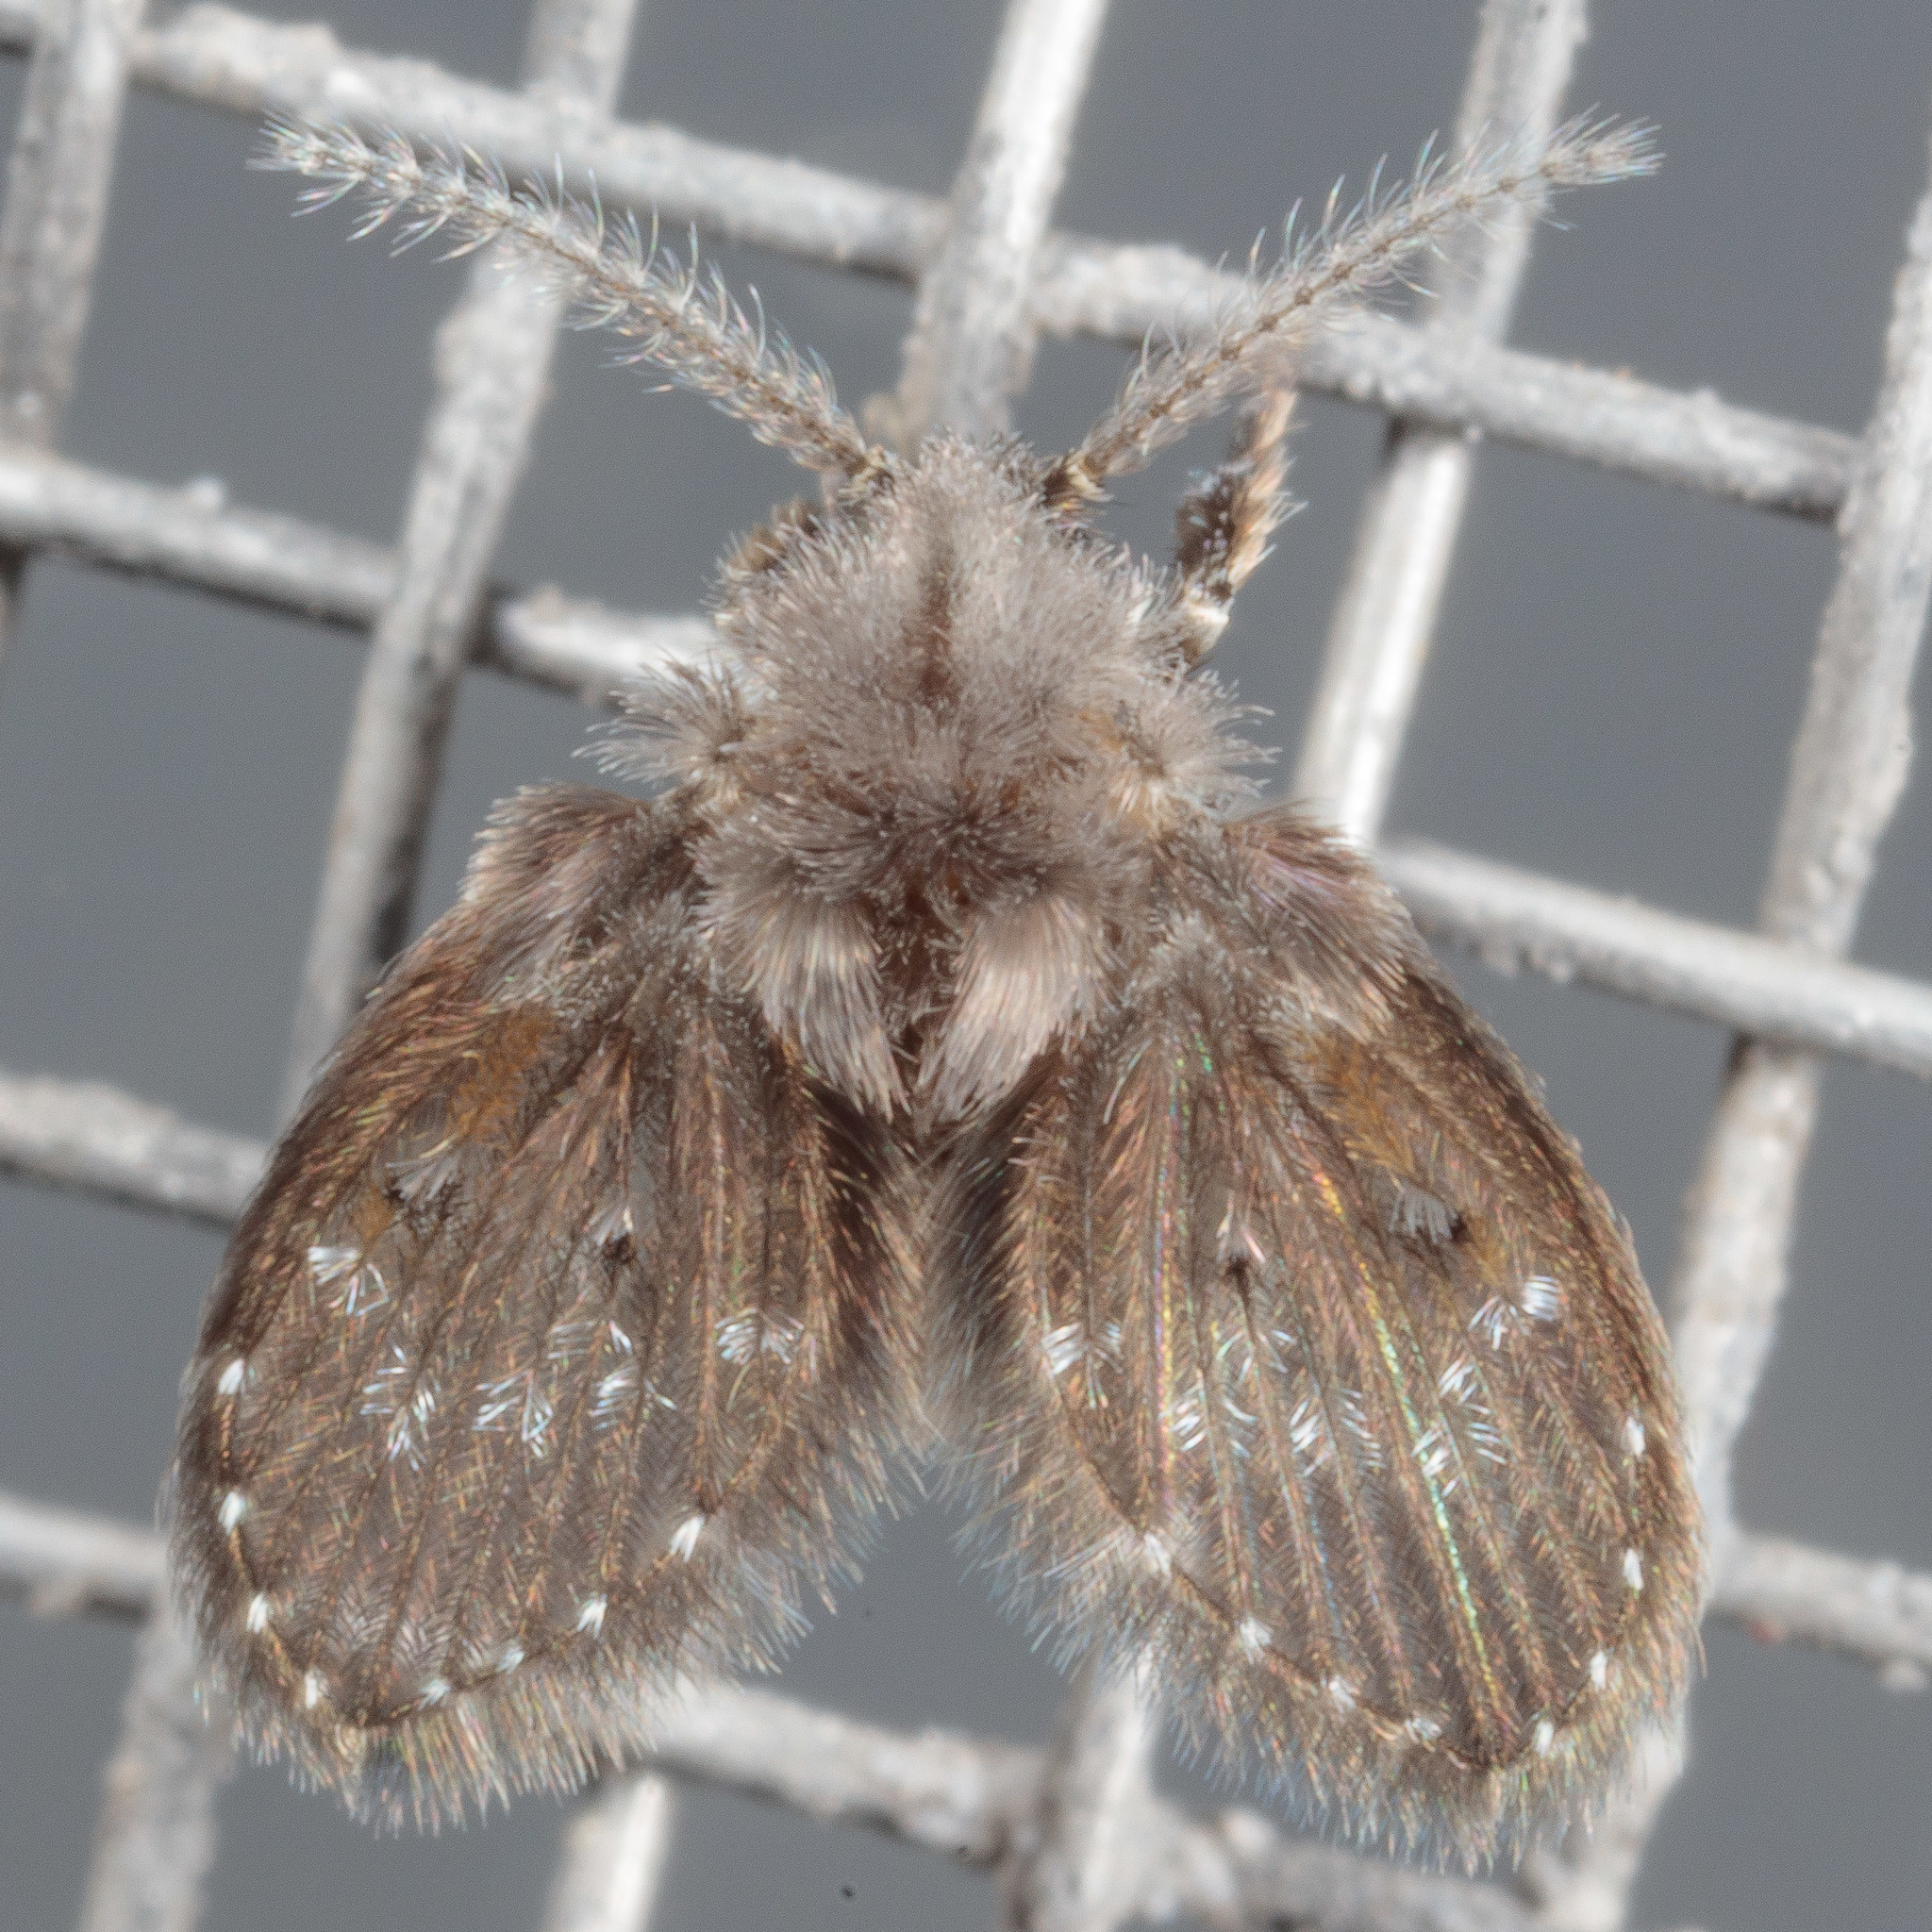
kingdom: Animalia
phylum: Arthropoda
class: Insecta
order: Diptera
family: Psychodidae
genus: Clogmia
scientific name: Clogmia albipunctatus
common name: White-spotted moth fly
